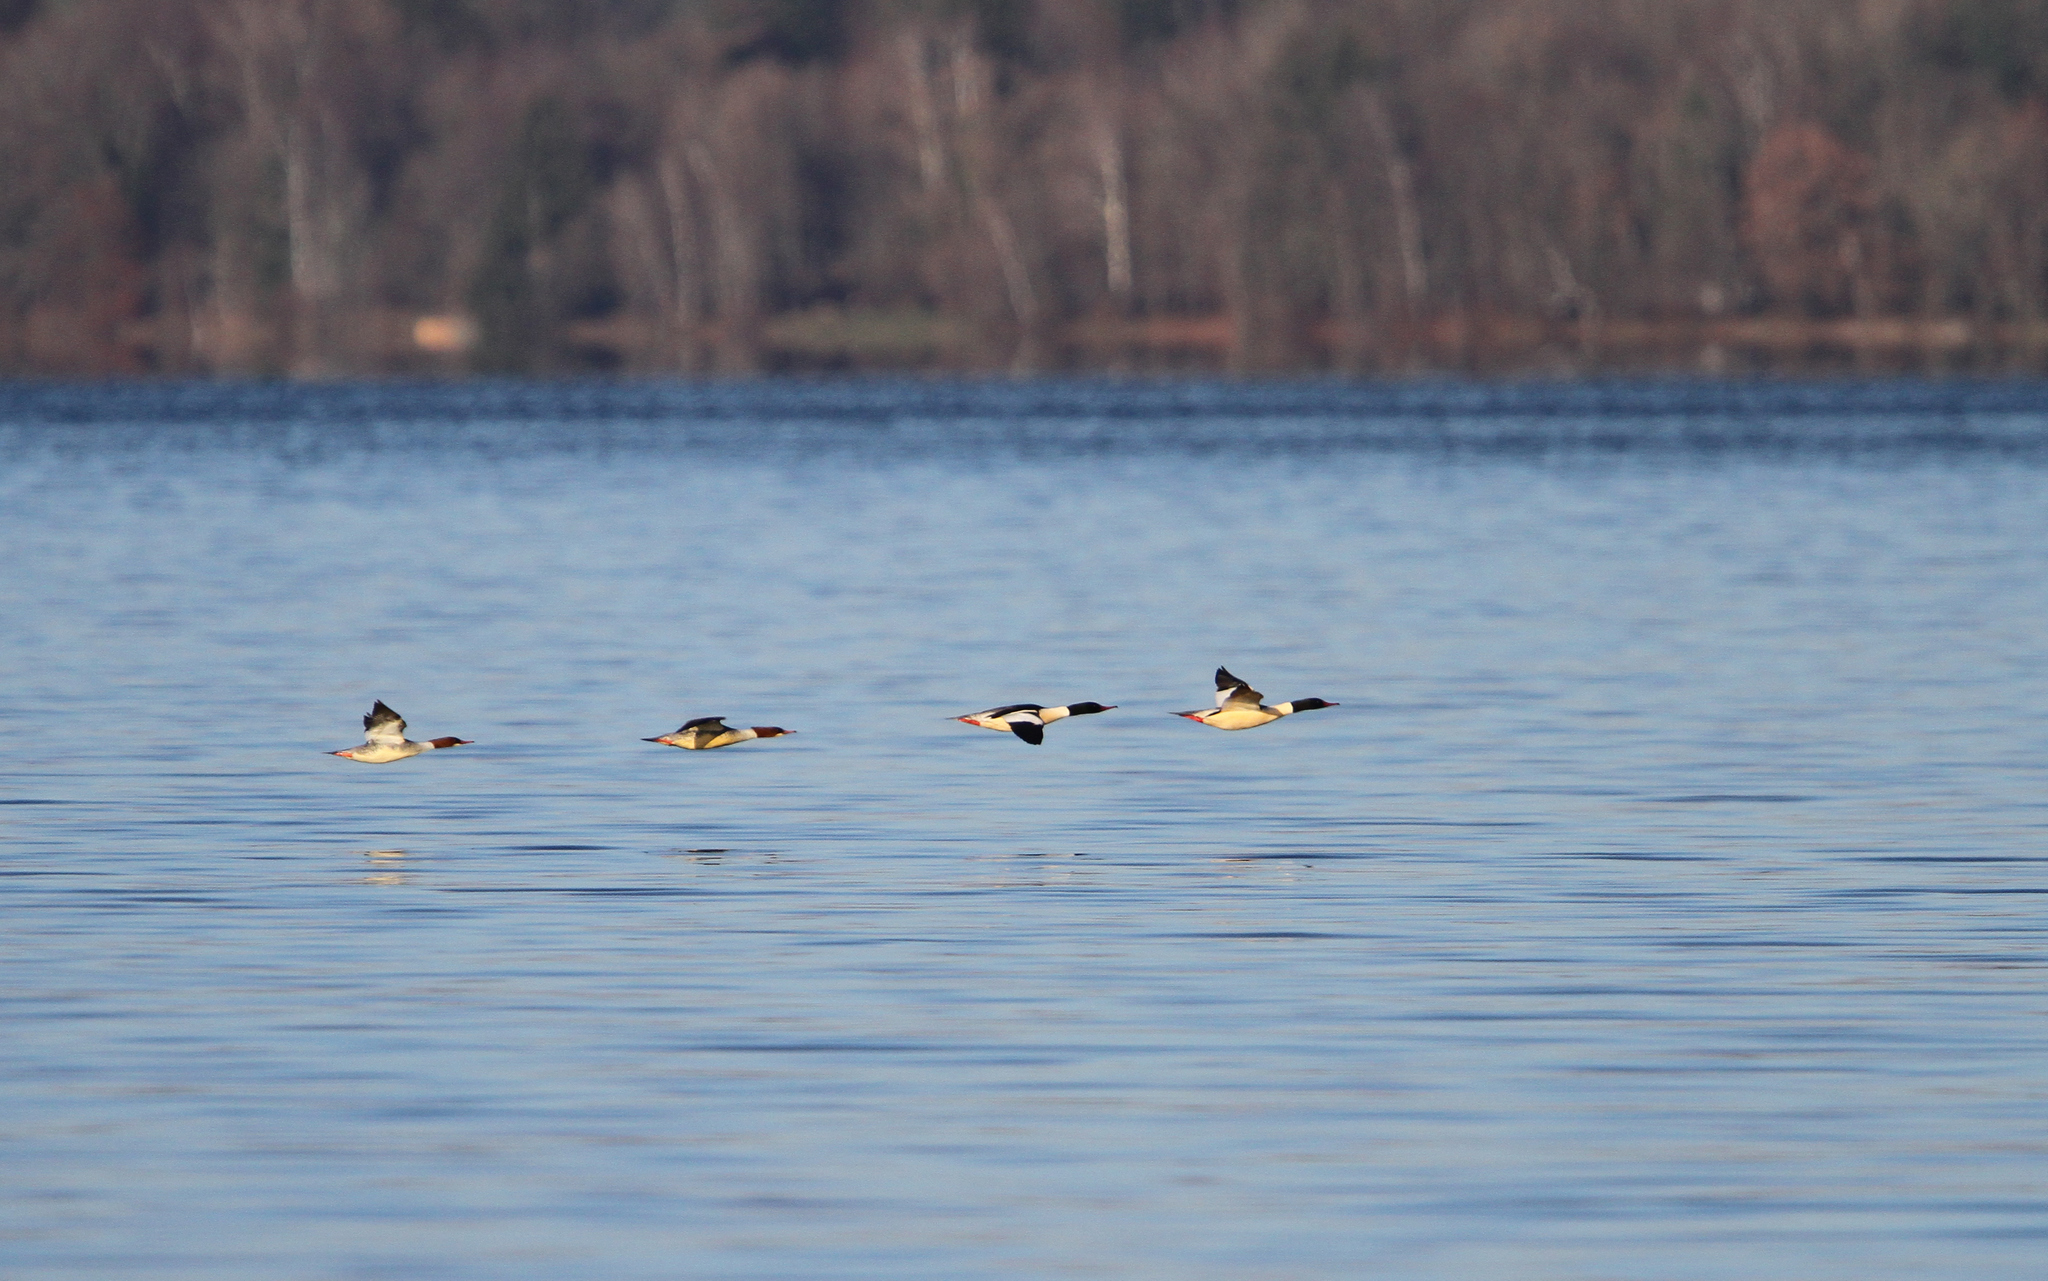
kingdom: Animalia
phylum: Chordata
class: Aves
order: Anseriformes
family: Anatidae
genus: Mergus
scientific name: Mergus merganser
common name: Common merganser
